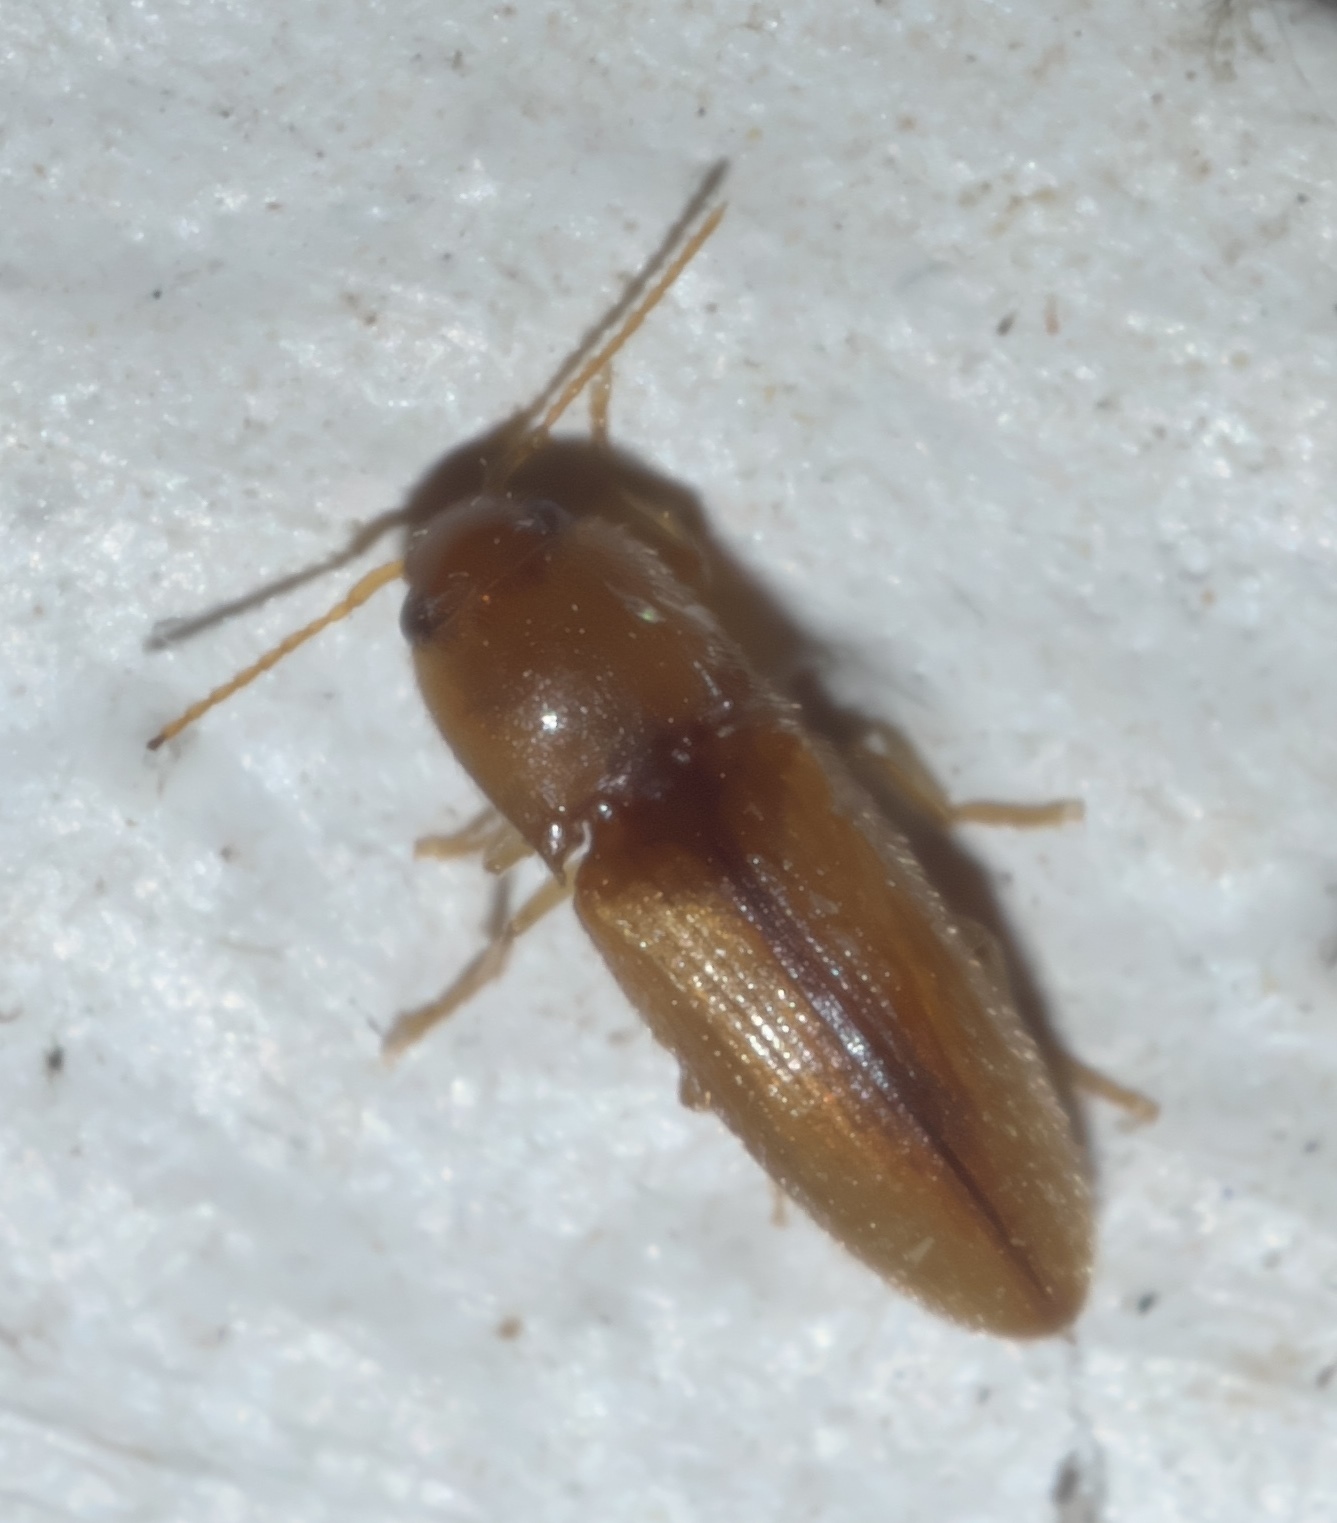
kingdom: Animalia
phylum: Arthropoda
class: Insecta
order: Coleoptera
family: Elateridae
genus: Glyphonyx
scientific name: Glyphonyx
